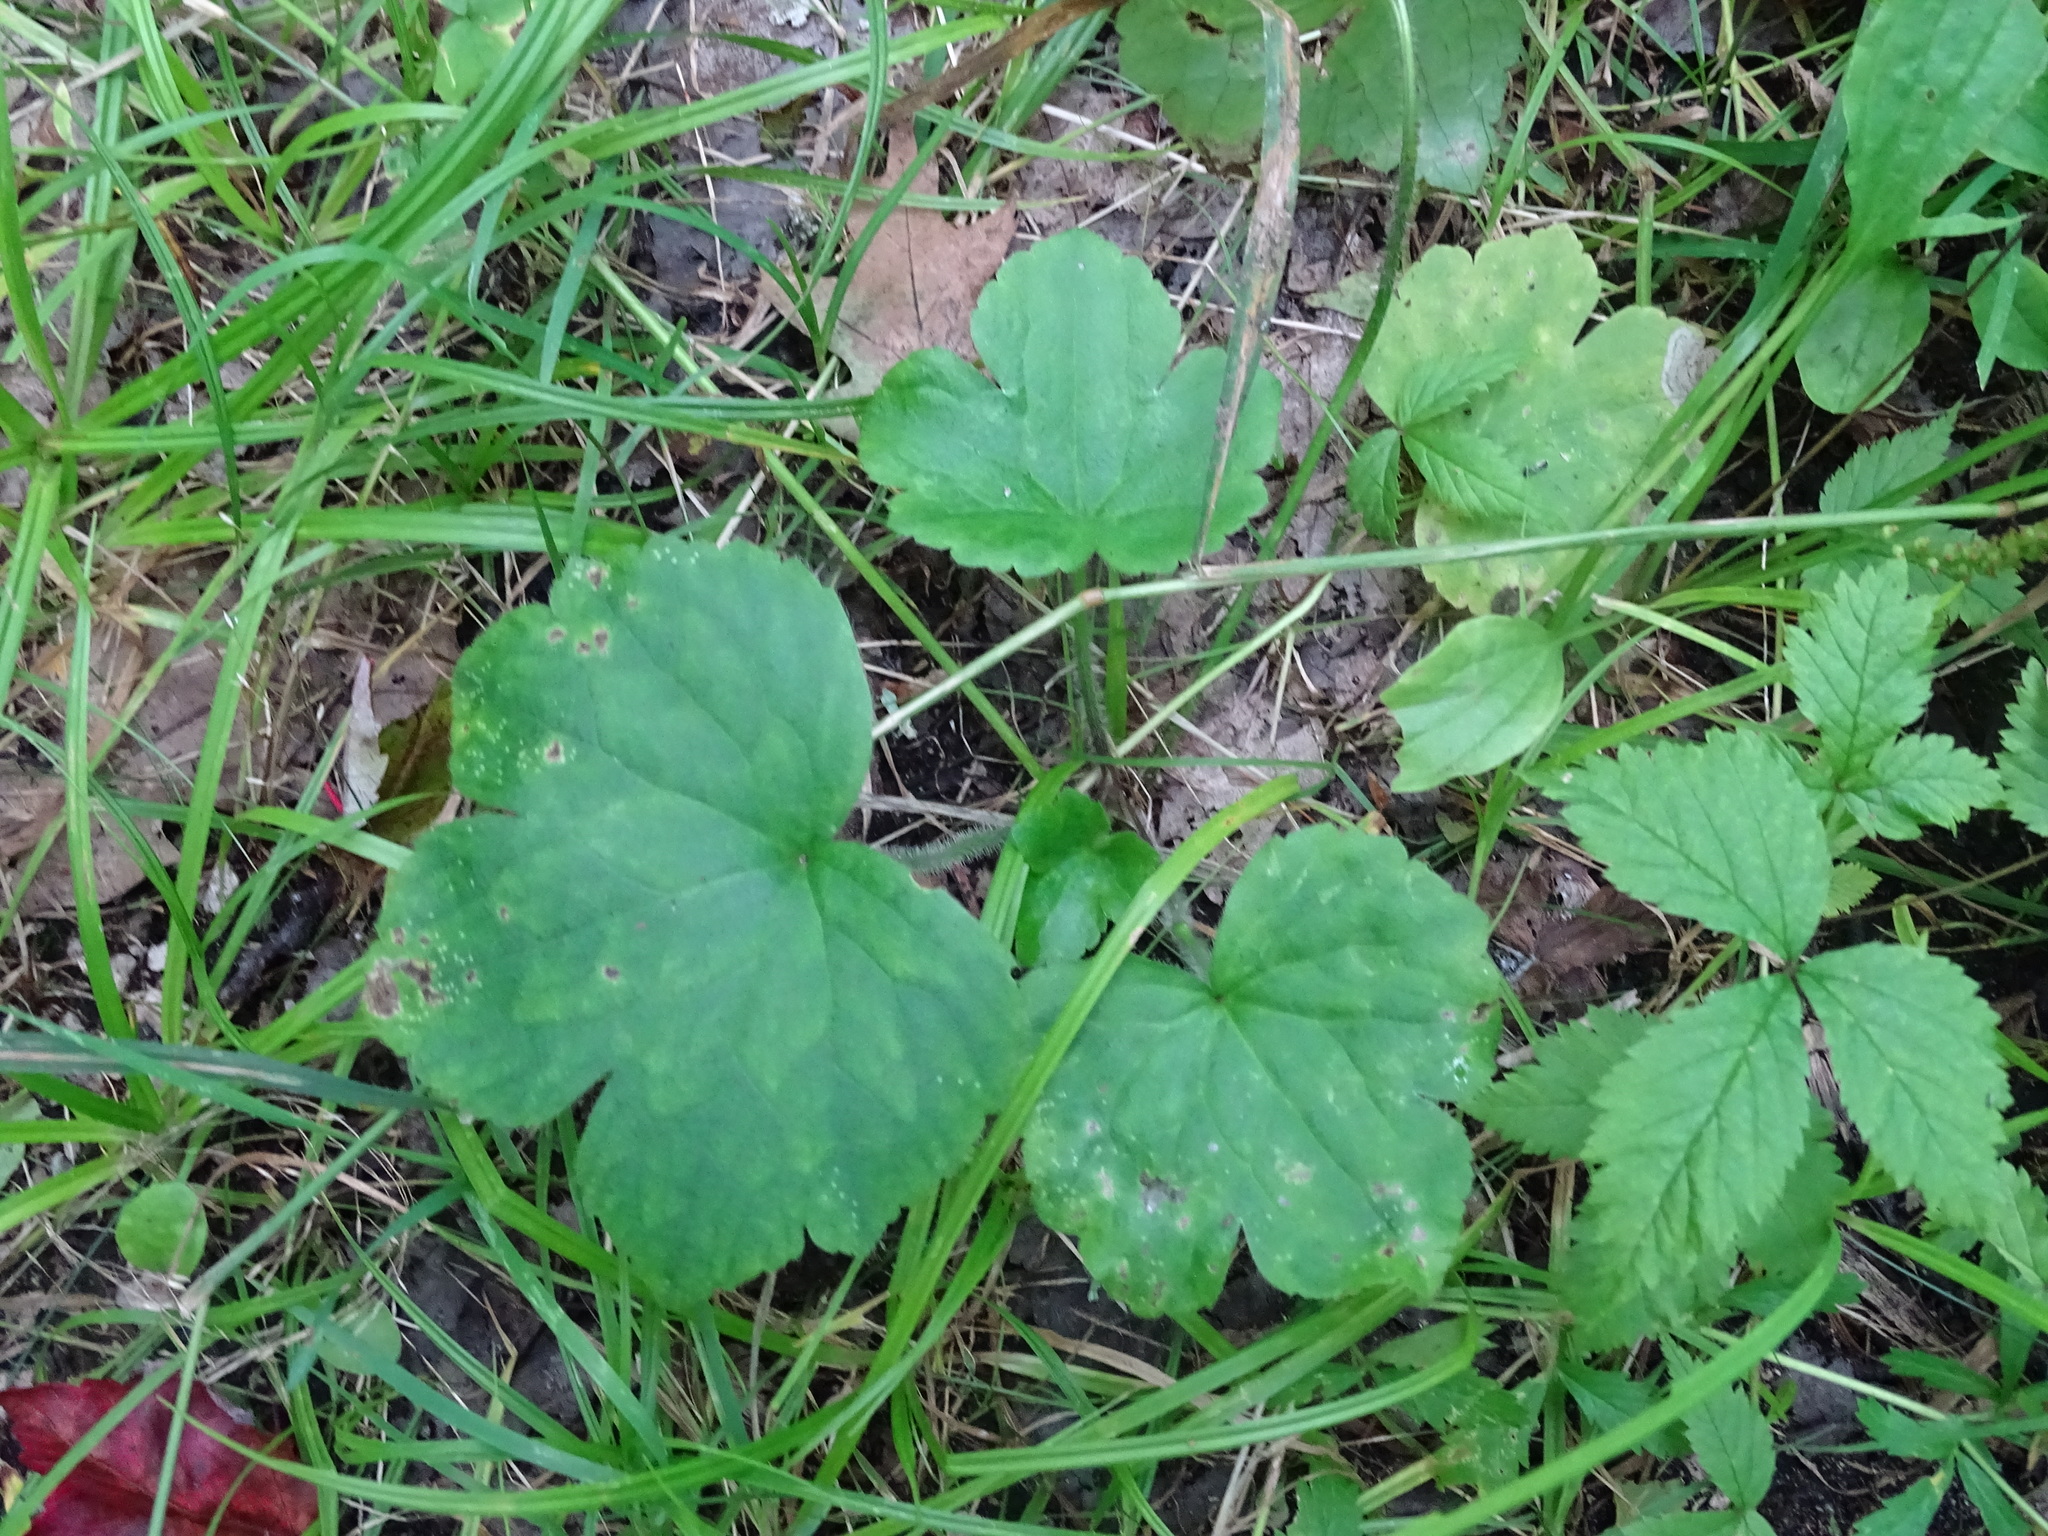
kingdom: Plantae
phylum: Tracheophyta
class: Magnoliopsida
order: Ranunculales
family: Ranunculaceae
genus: Ranunculus
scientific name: Ranunculus recurvatus
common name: Blisterwort
